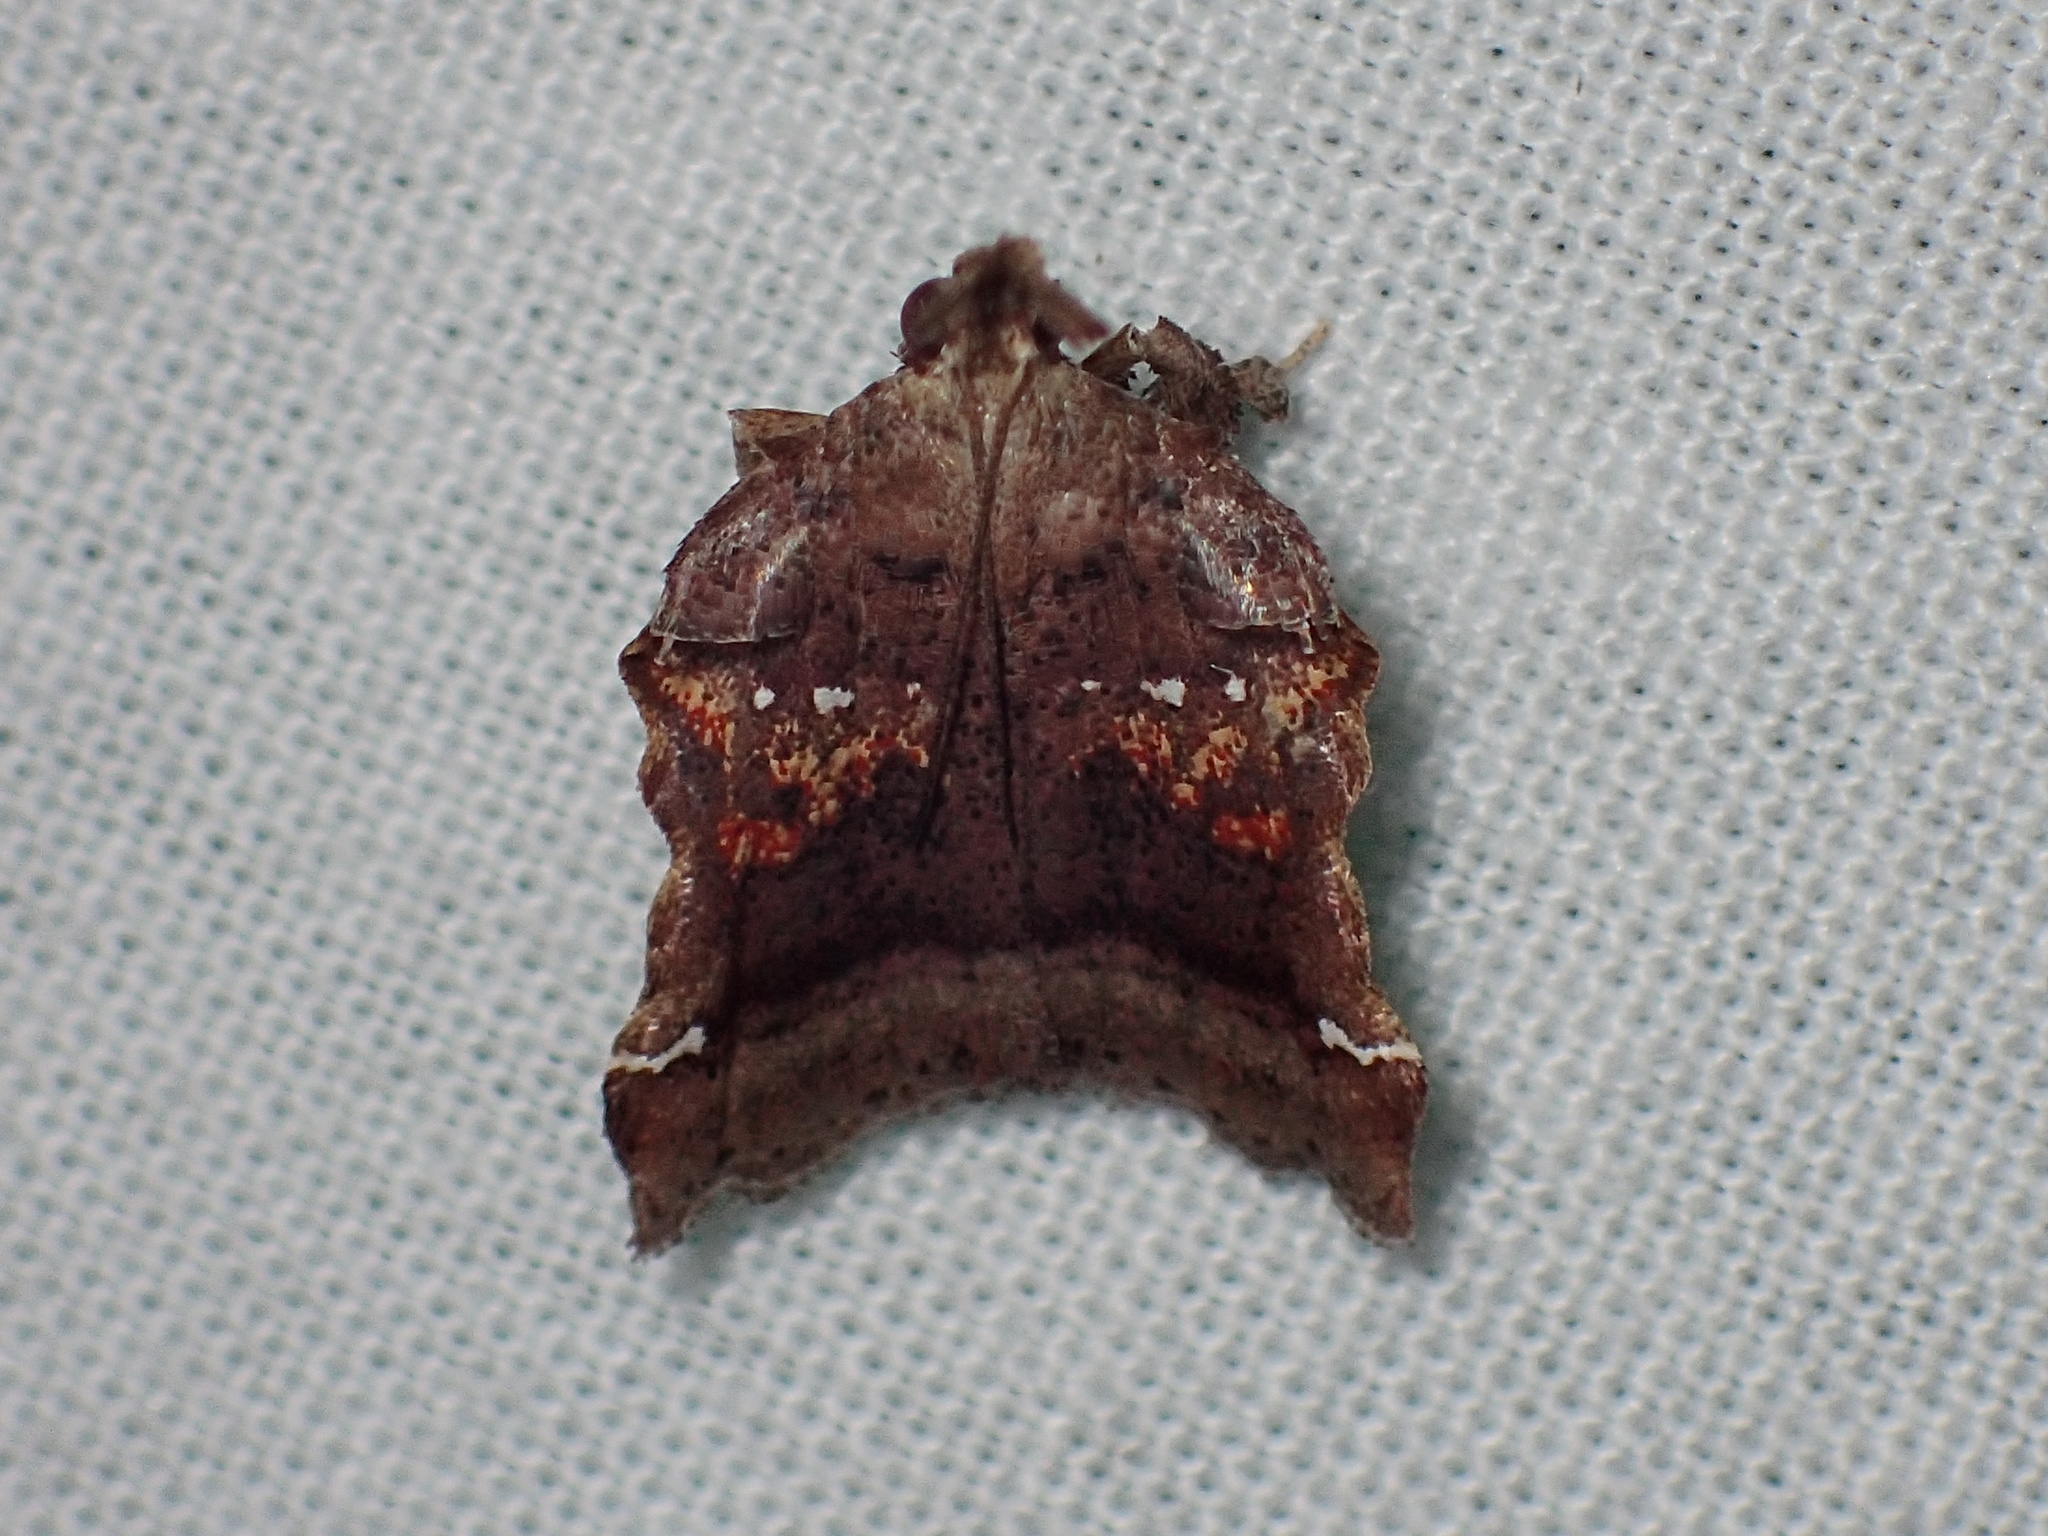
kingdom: Animalia
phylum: Arthropoda
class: Insecta
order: Lepidoptera
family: Pyralidae
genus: Clydonopteron
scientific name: Clydonopteron sacculana
